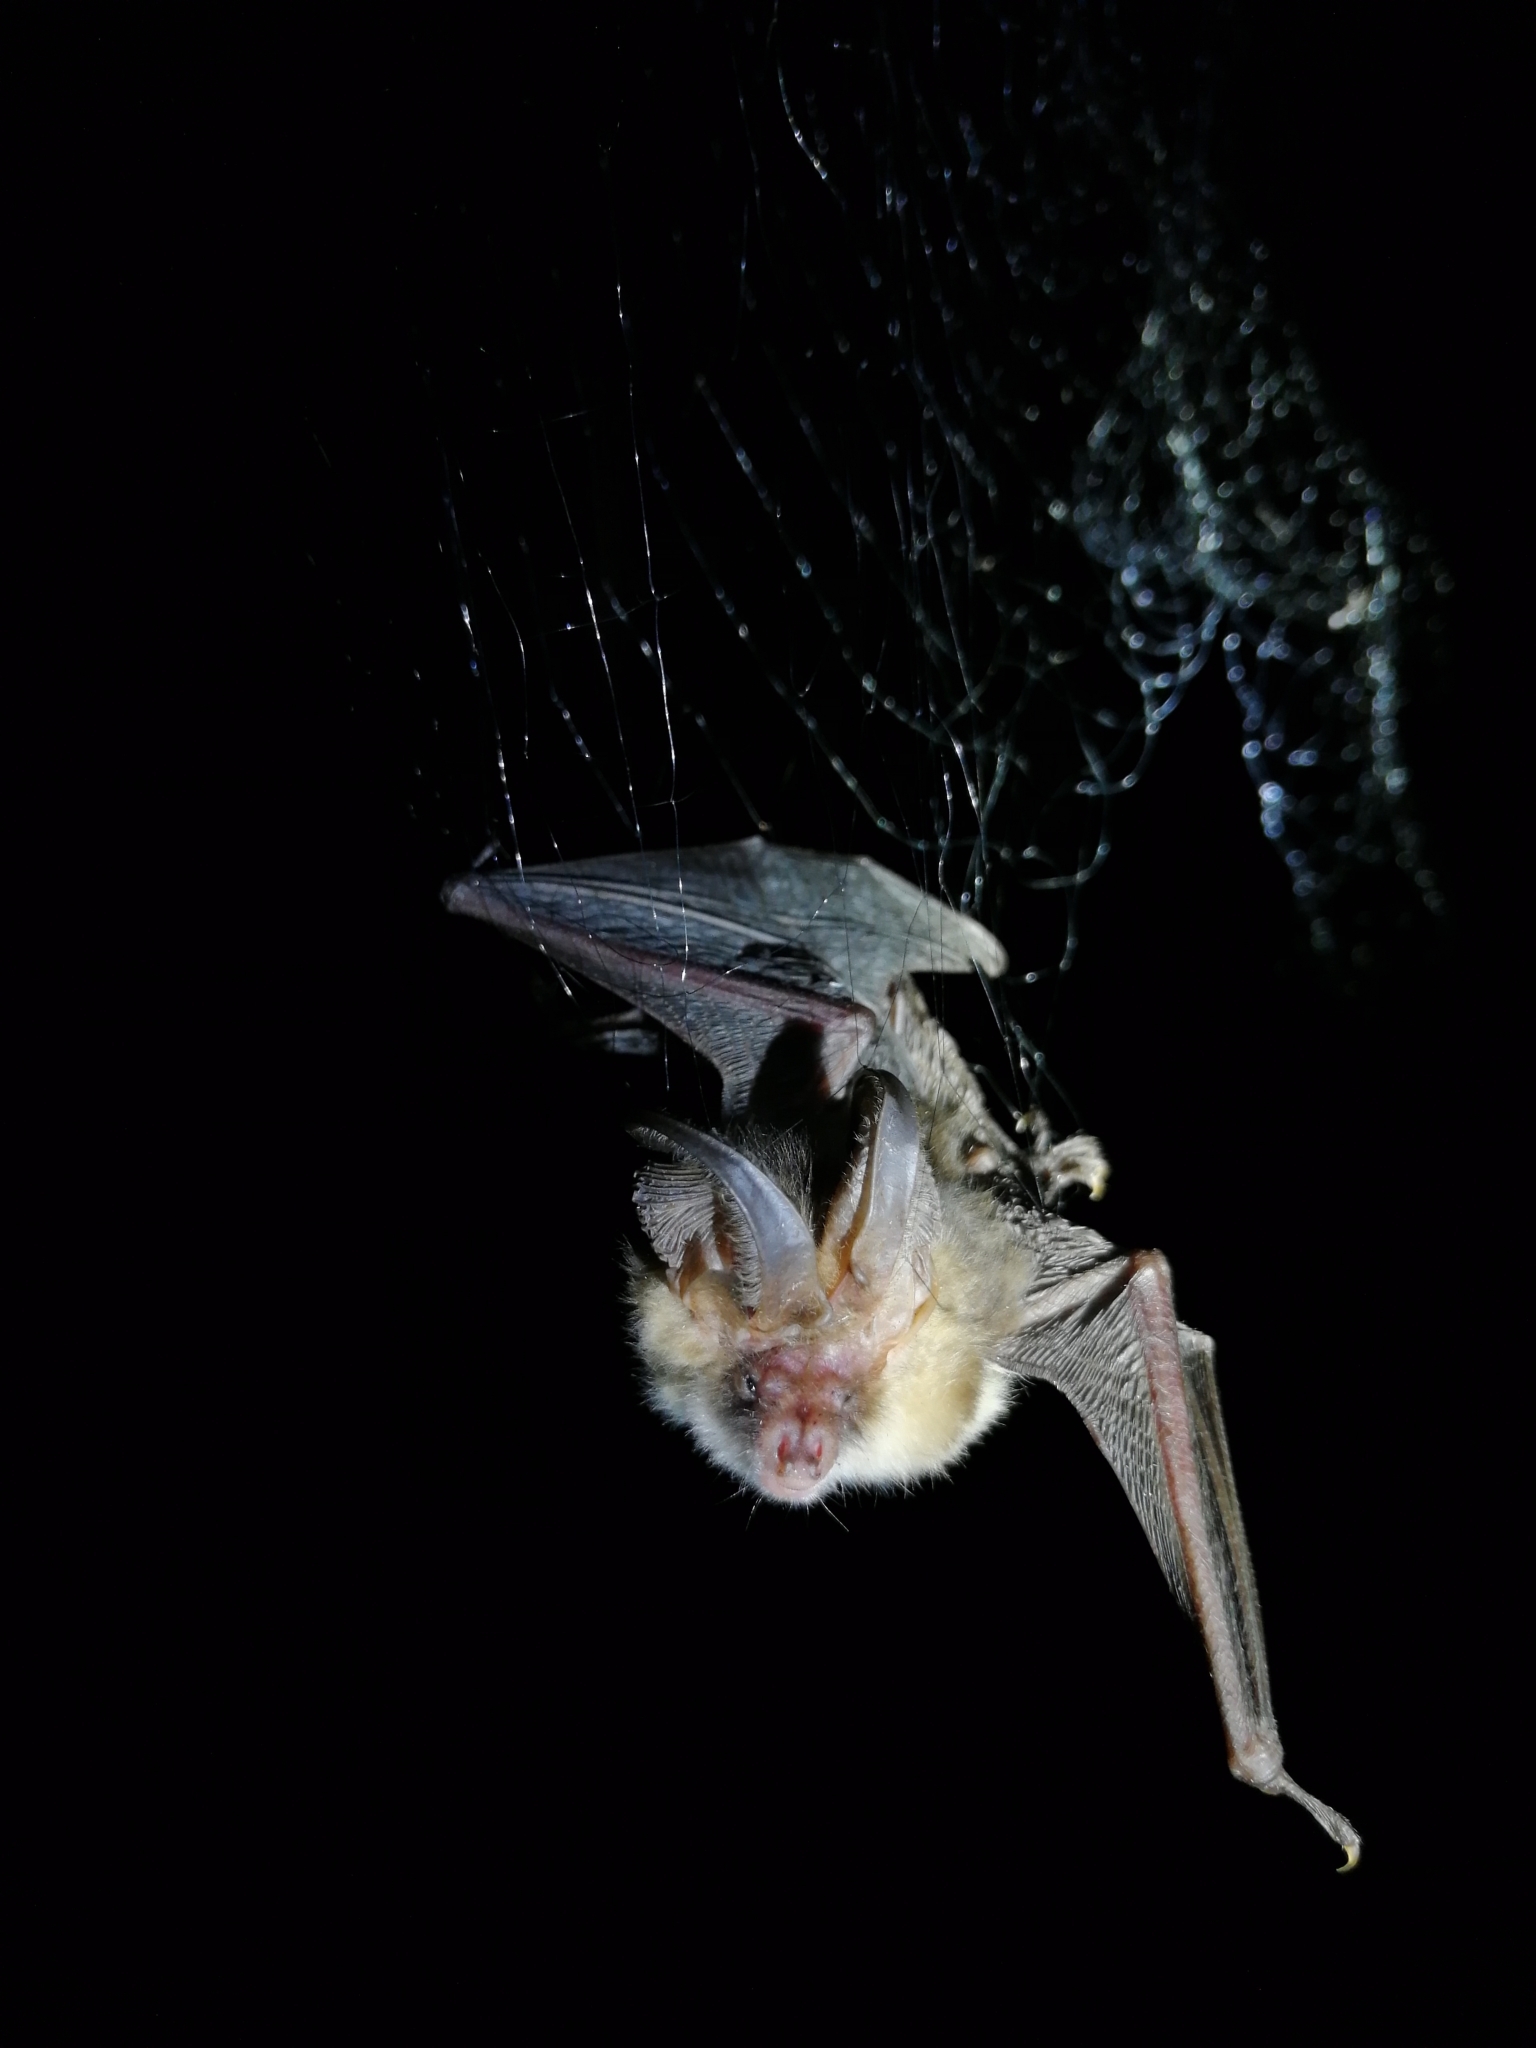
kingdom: Animalia
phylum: Chordata
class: Mammalia
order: Chiroptera
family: Vespertilionidae
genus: Plecotus
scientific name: Plecotus auritus
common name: Brown long-eared bat
